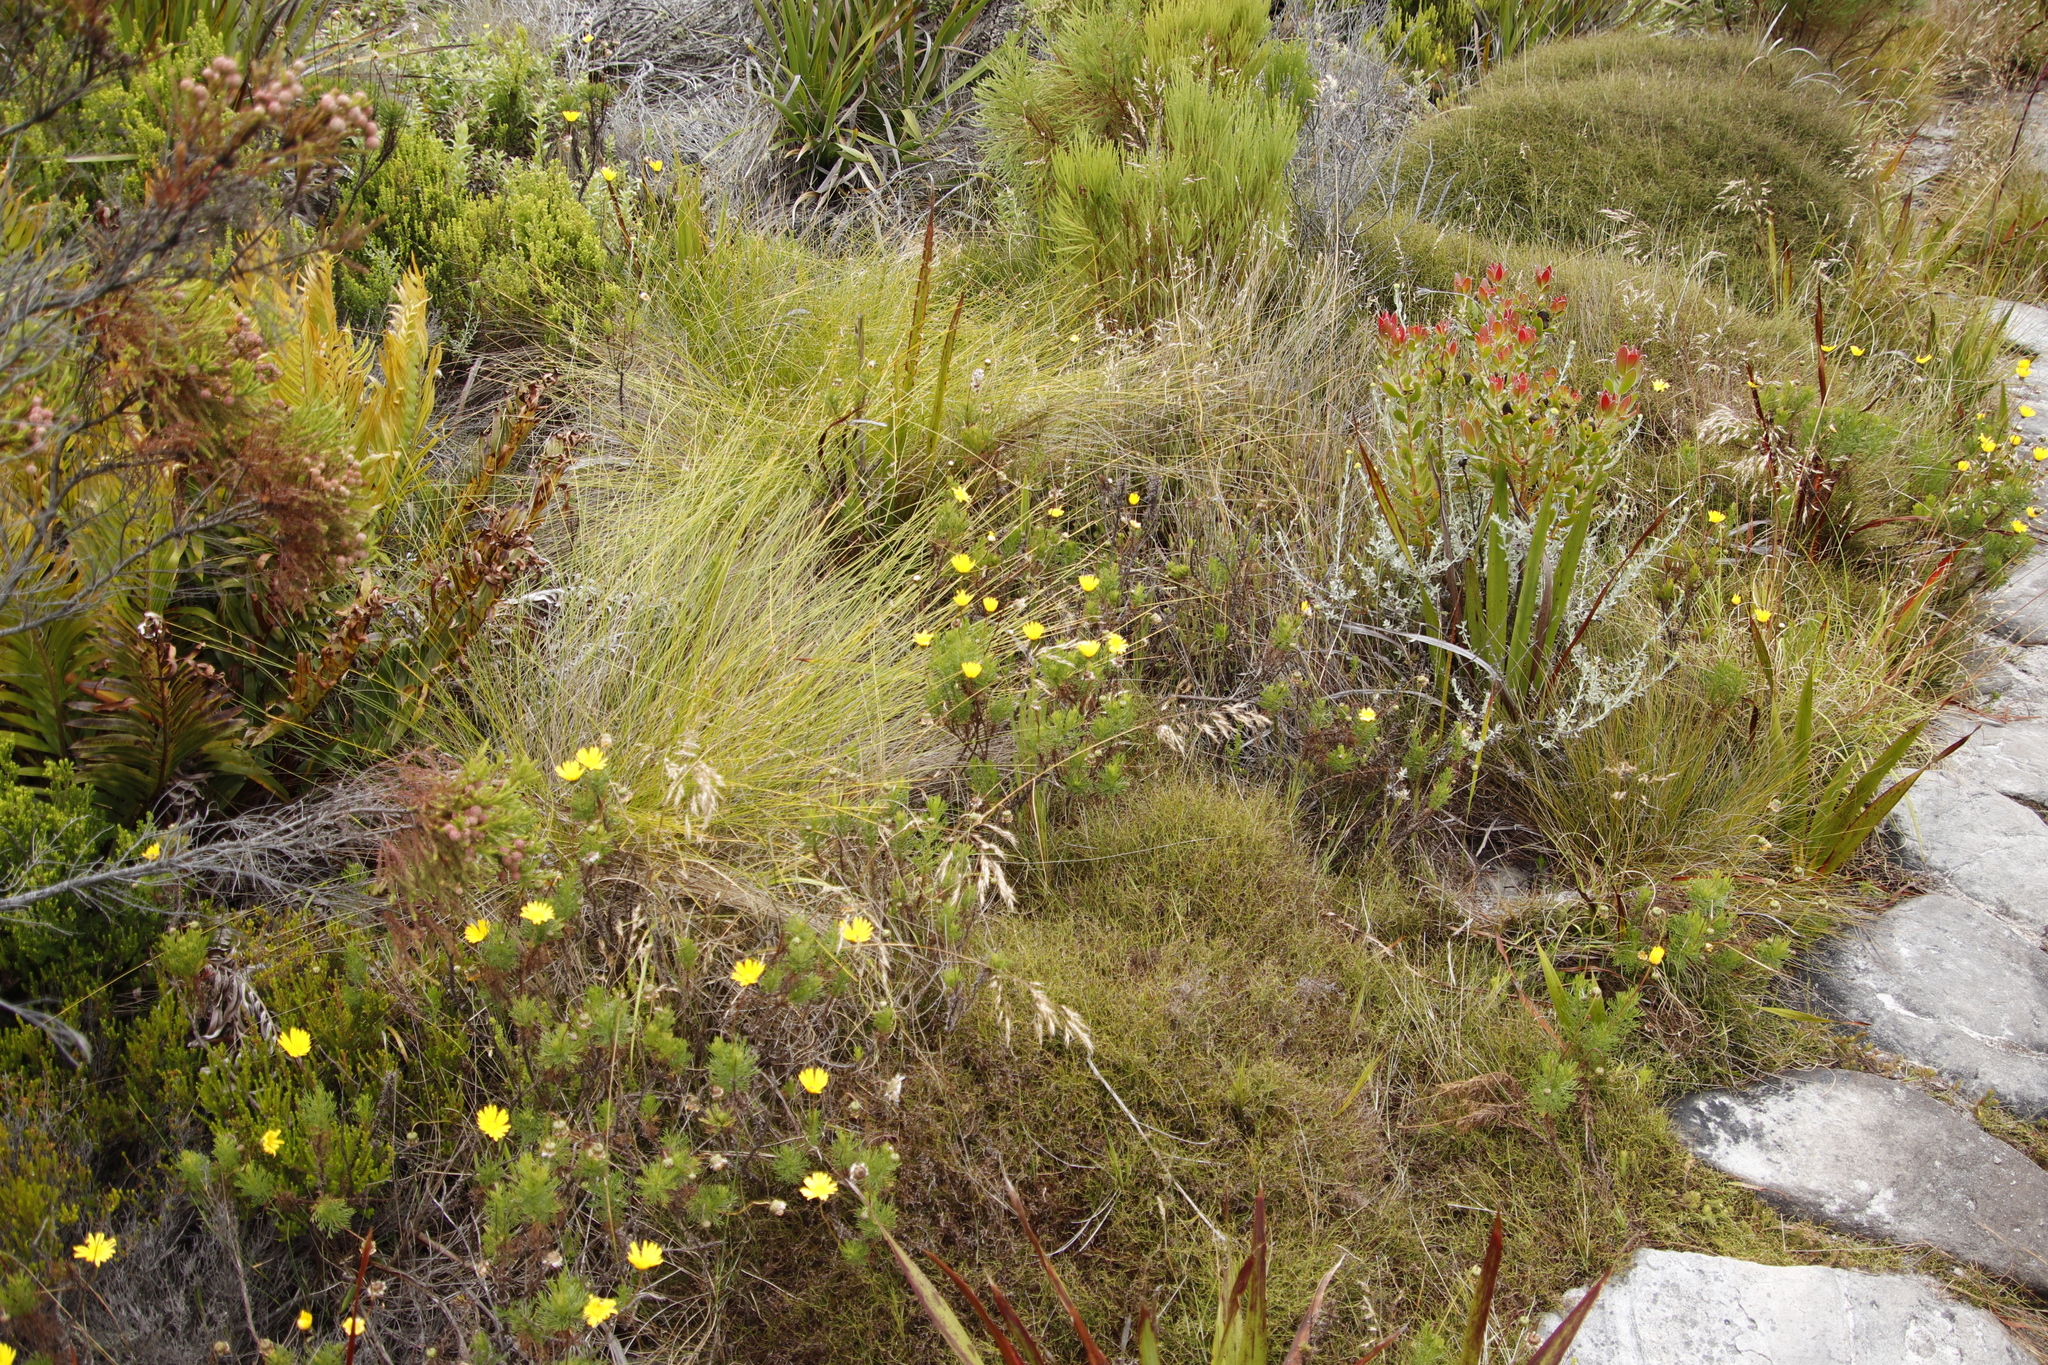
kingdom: Plantae
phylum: Tracheophyta
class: Magnoliopsida
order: Asterales
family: Asteraceae
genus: Euryops
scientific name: Euryops abrotanifolius
